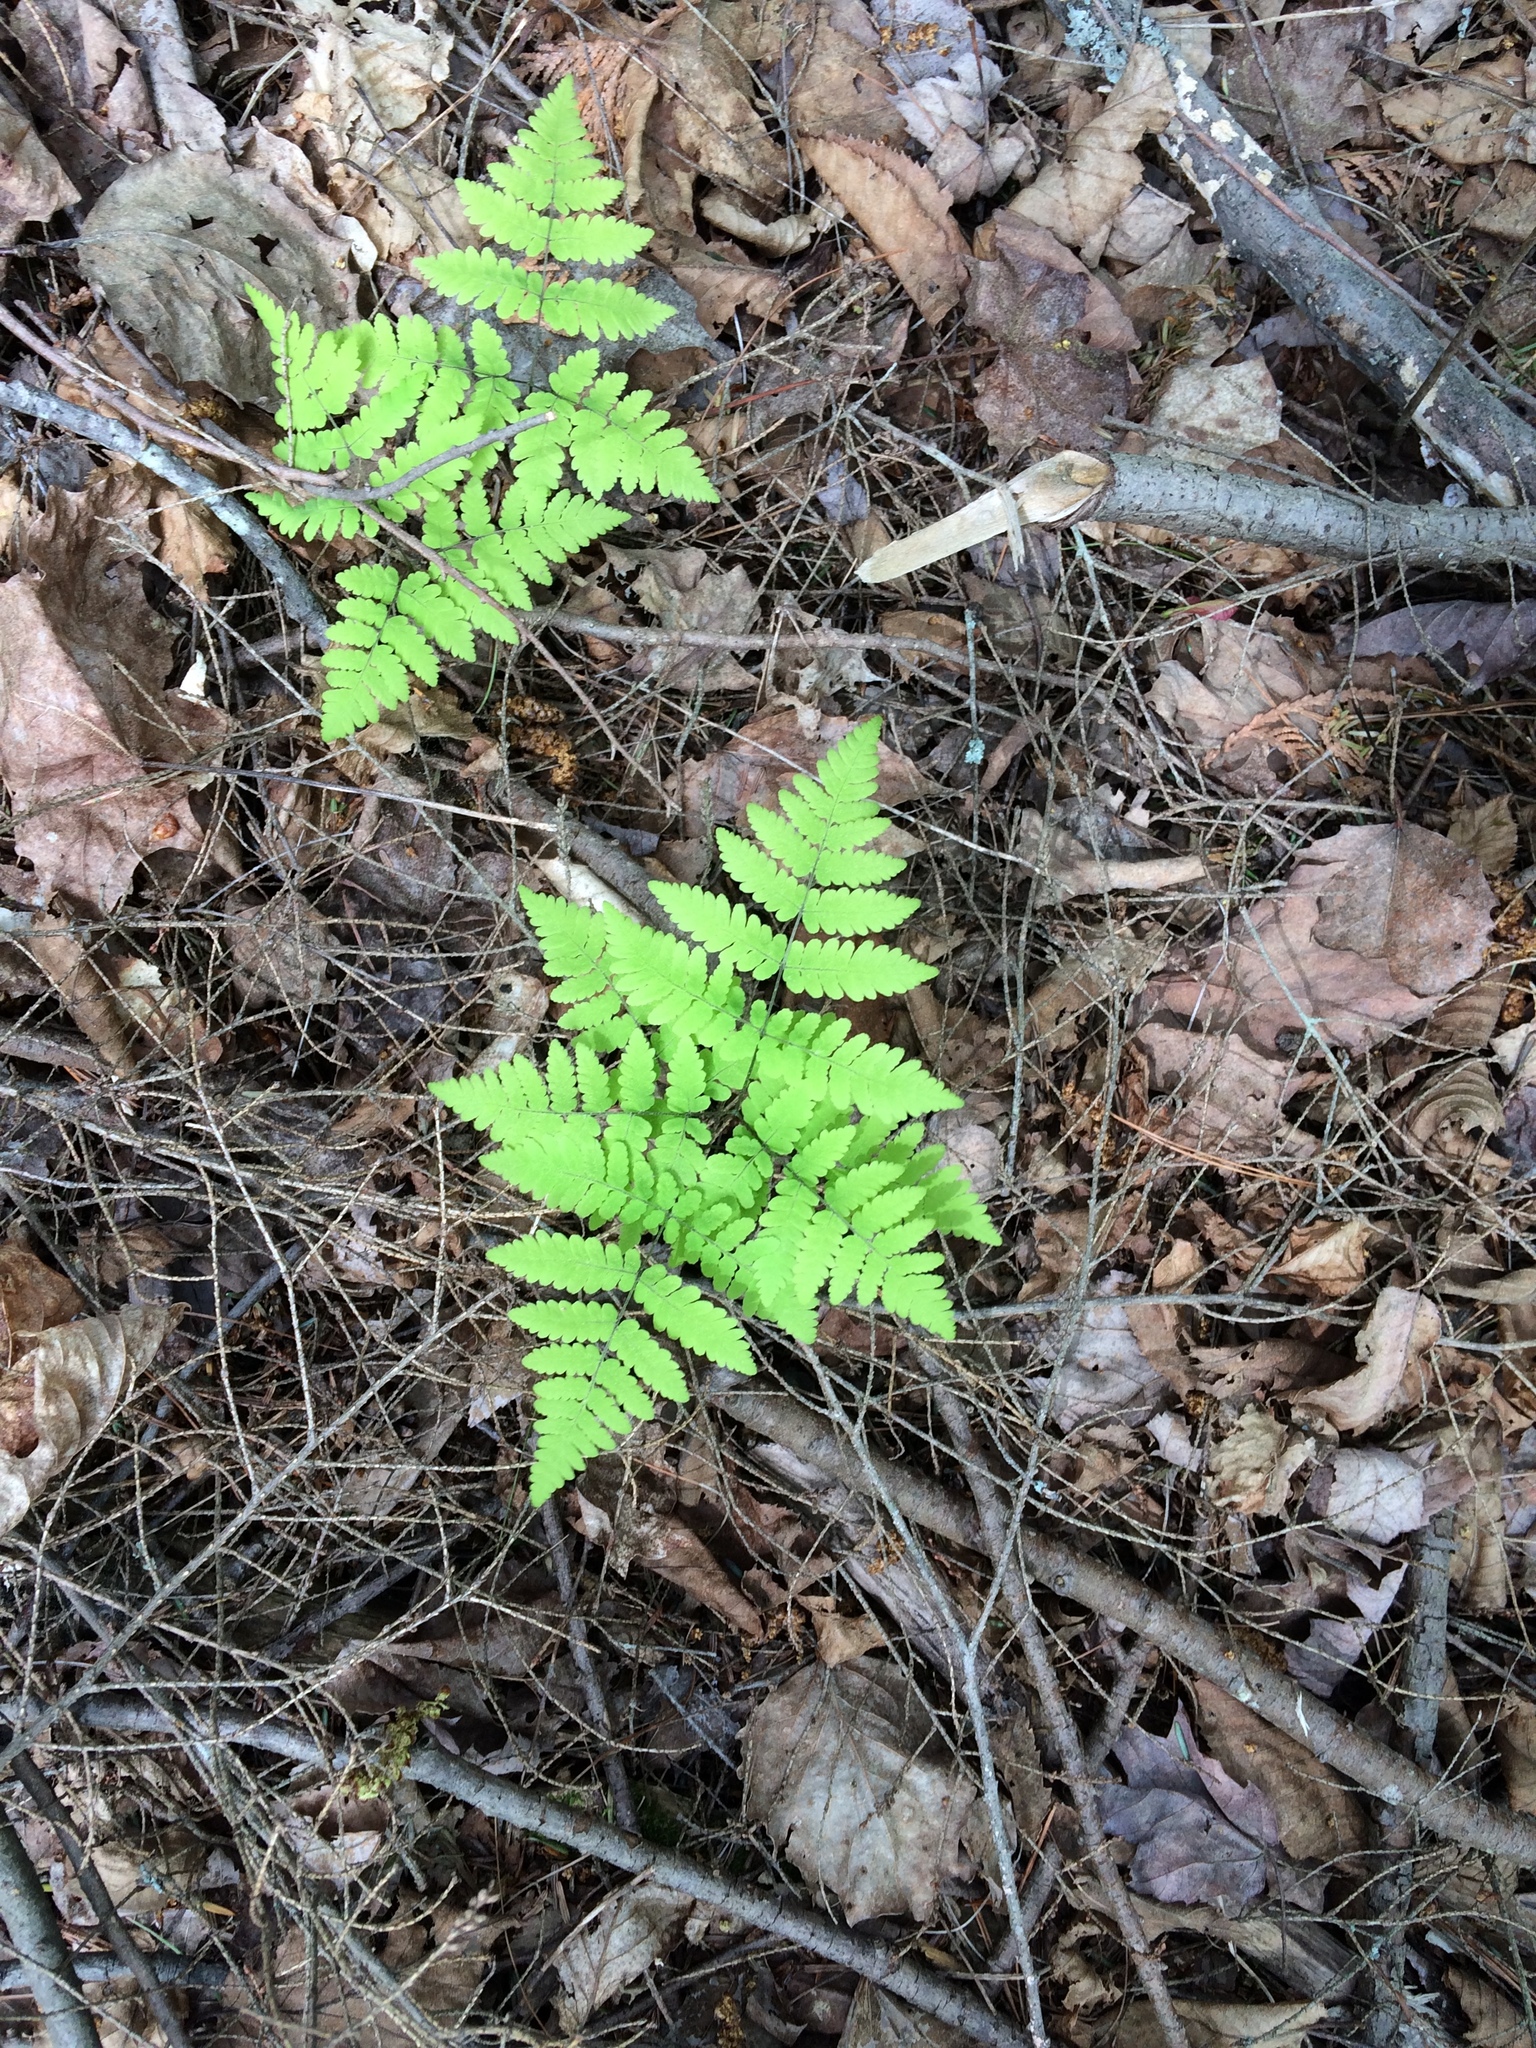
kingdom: Plantae
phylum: Tracheophyta
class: Polypodiopsida
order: Polypodiales
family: Cystopteridaceae
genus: Gymnocarpium
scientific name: Gymnocarpium dryopteris
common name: Oak fern
